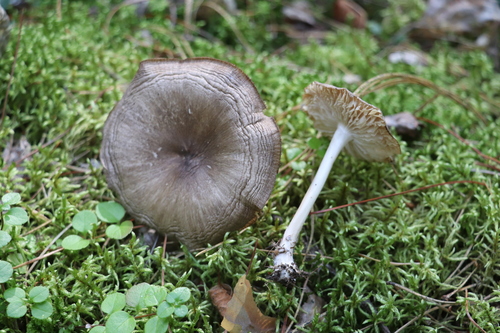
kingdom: Fungi
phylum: Basidiomycota
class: Agaricomycetes
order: Agaricales
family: Tricholomataceae
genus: Megacollybia
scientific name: Megacollybia platyphylla
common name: Whitelaced shank
